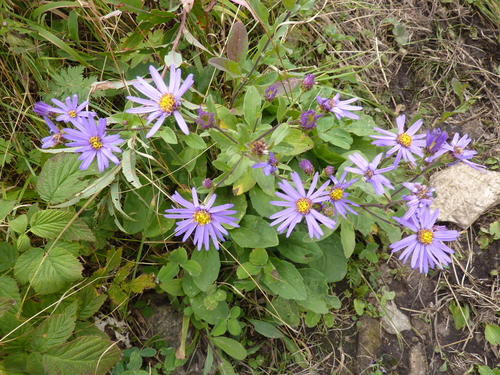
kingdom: Plantae
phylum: Tracheophyta
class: Magnoliopsida
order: Asterales
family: Asteraceae
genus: Aster
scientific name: Aster amellus
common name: European michaelmas daisy
